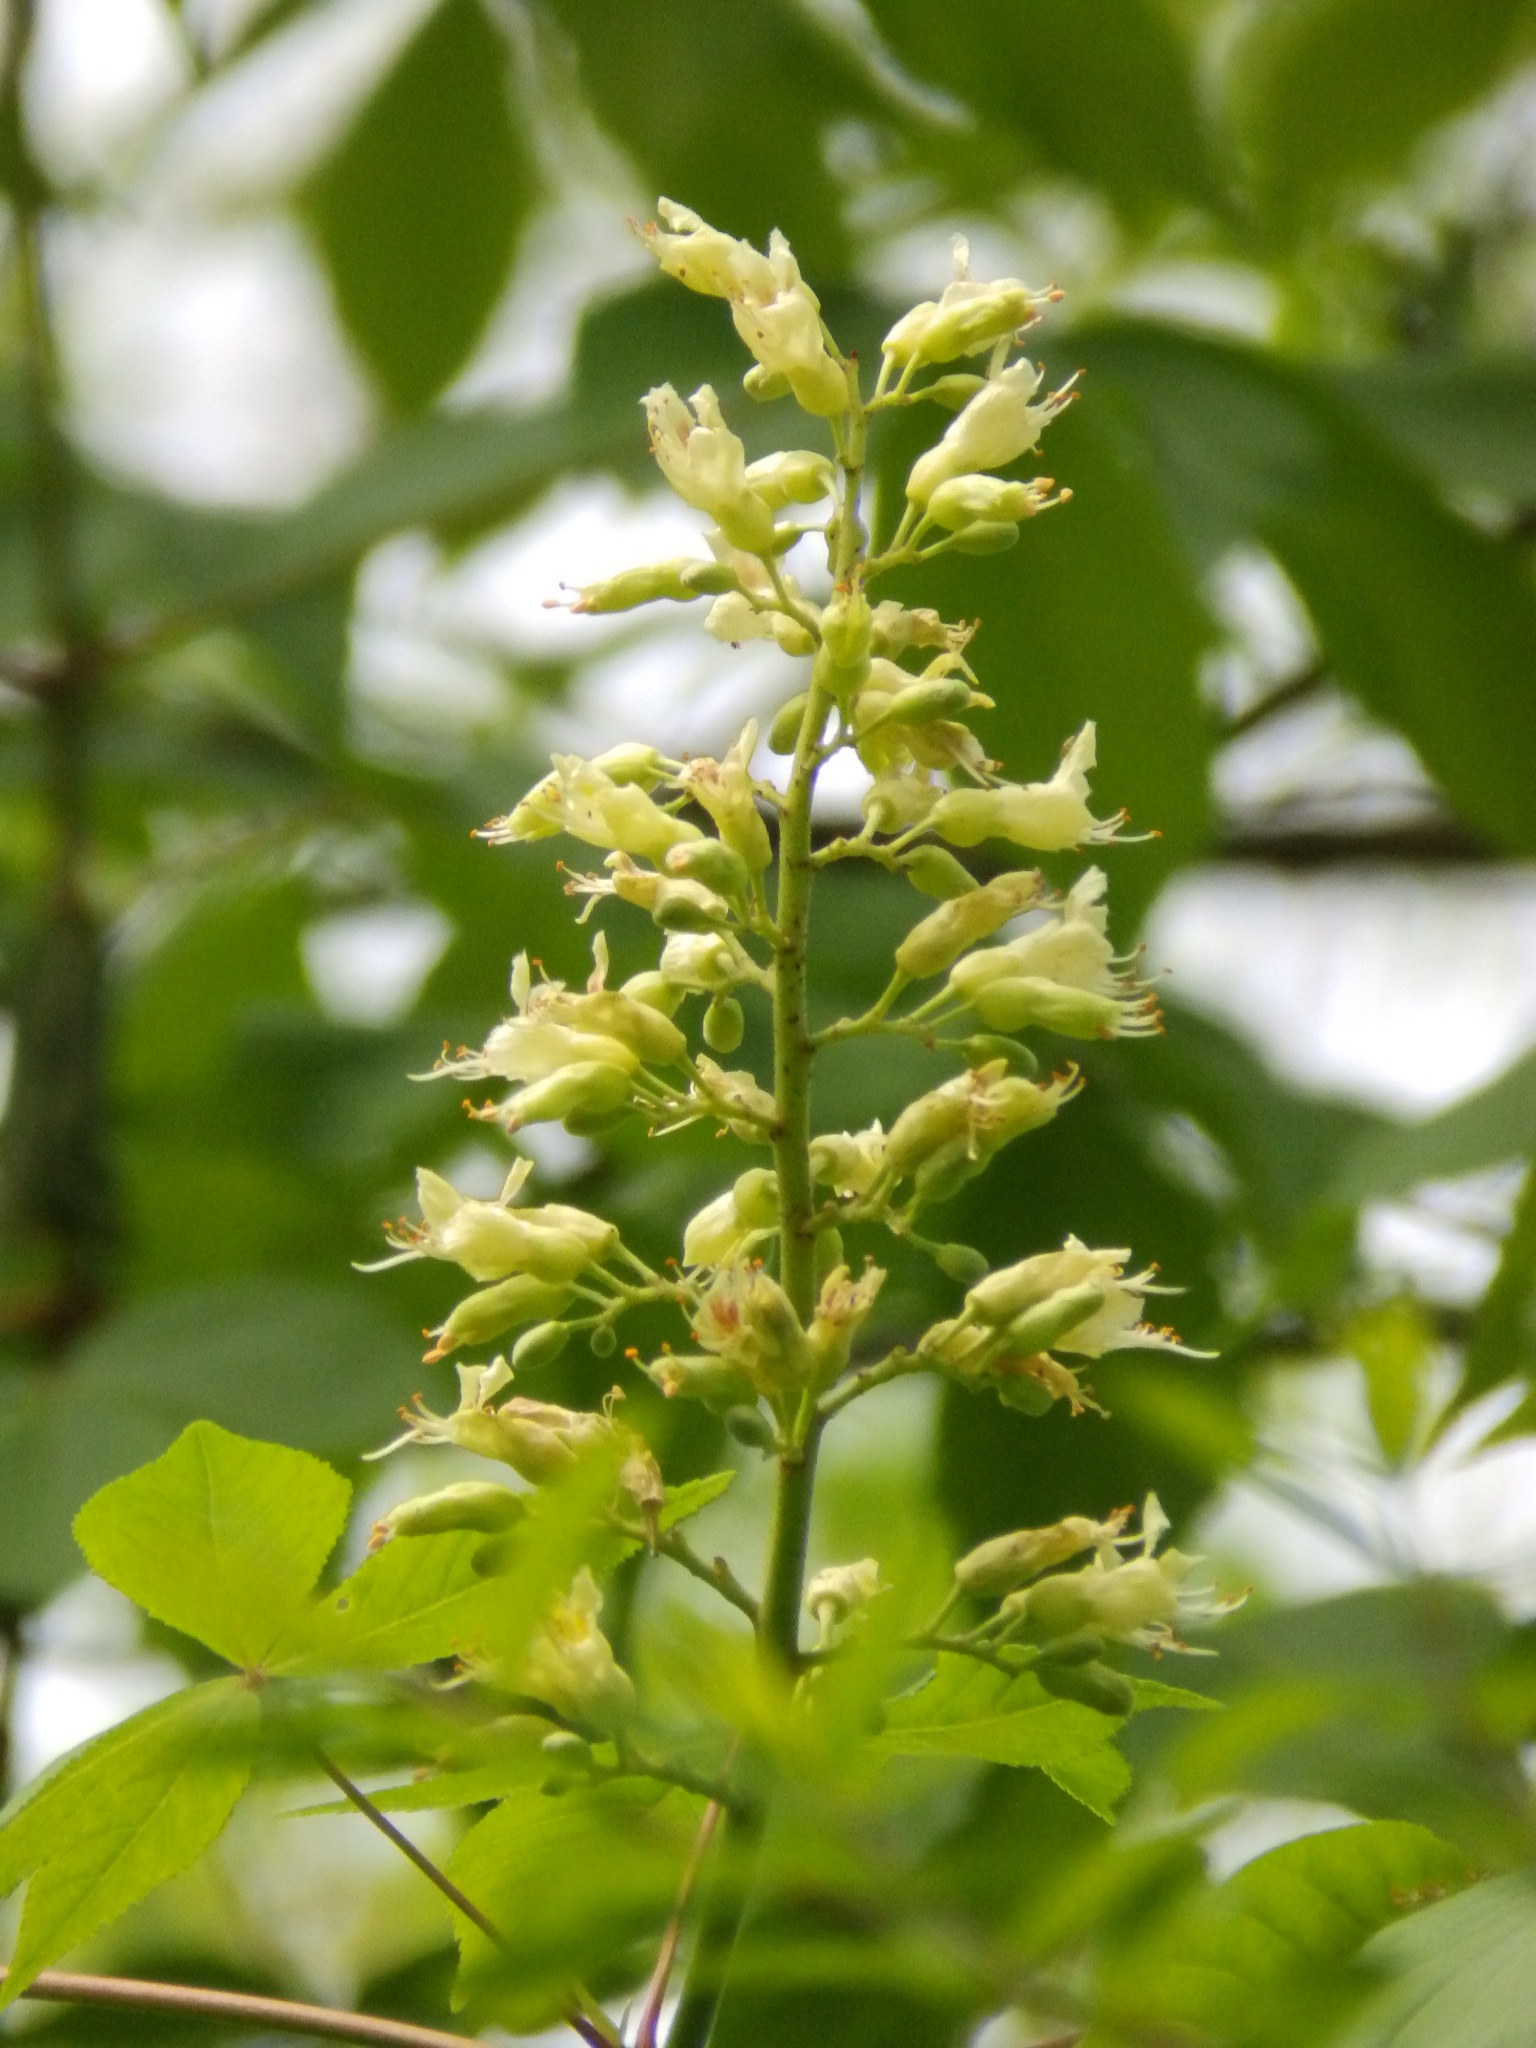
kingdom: Plantae
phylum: Tracheophyta
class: Magnoliopsida
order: Sapindales
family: Sapindaceae
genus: Aesculus
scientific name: Aesculus glabra
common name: Ohio buckeye
